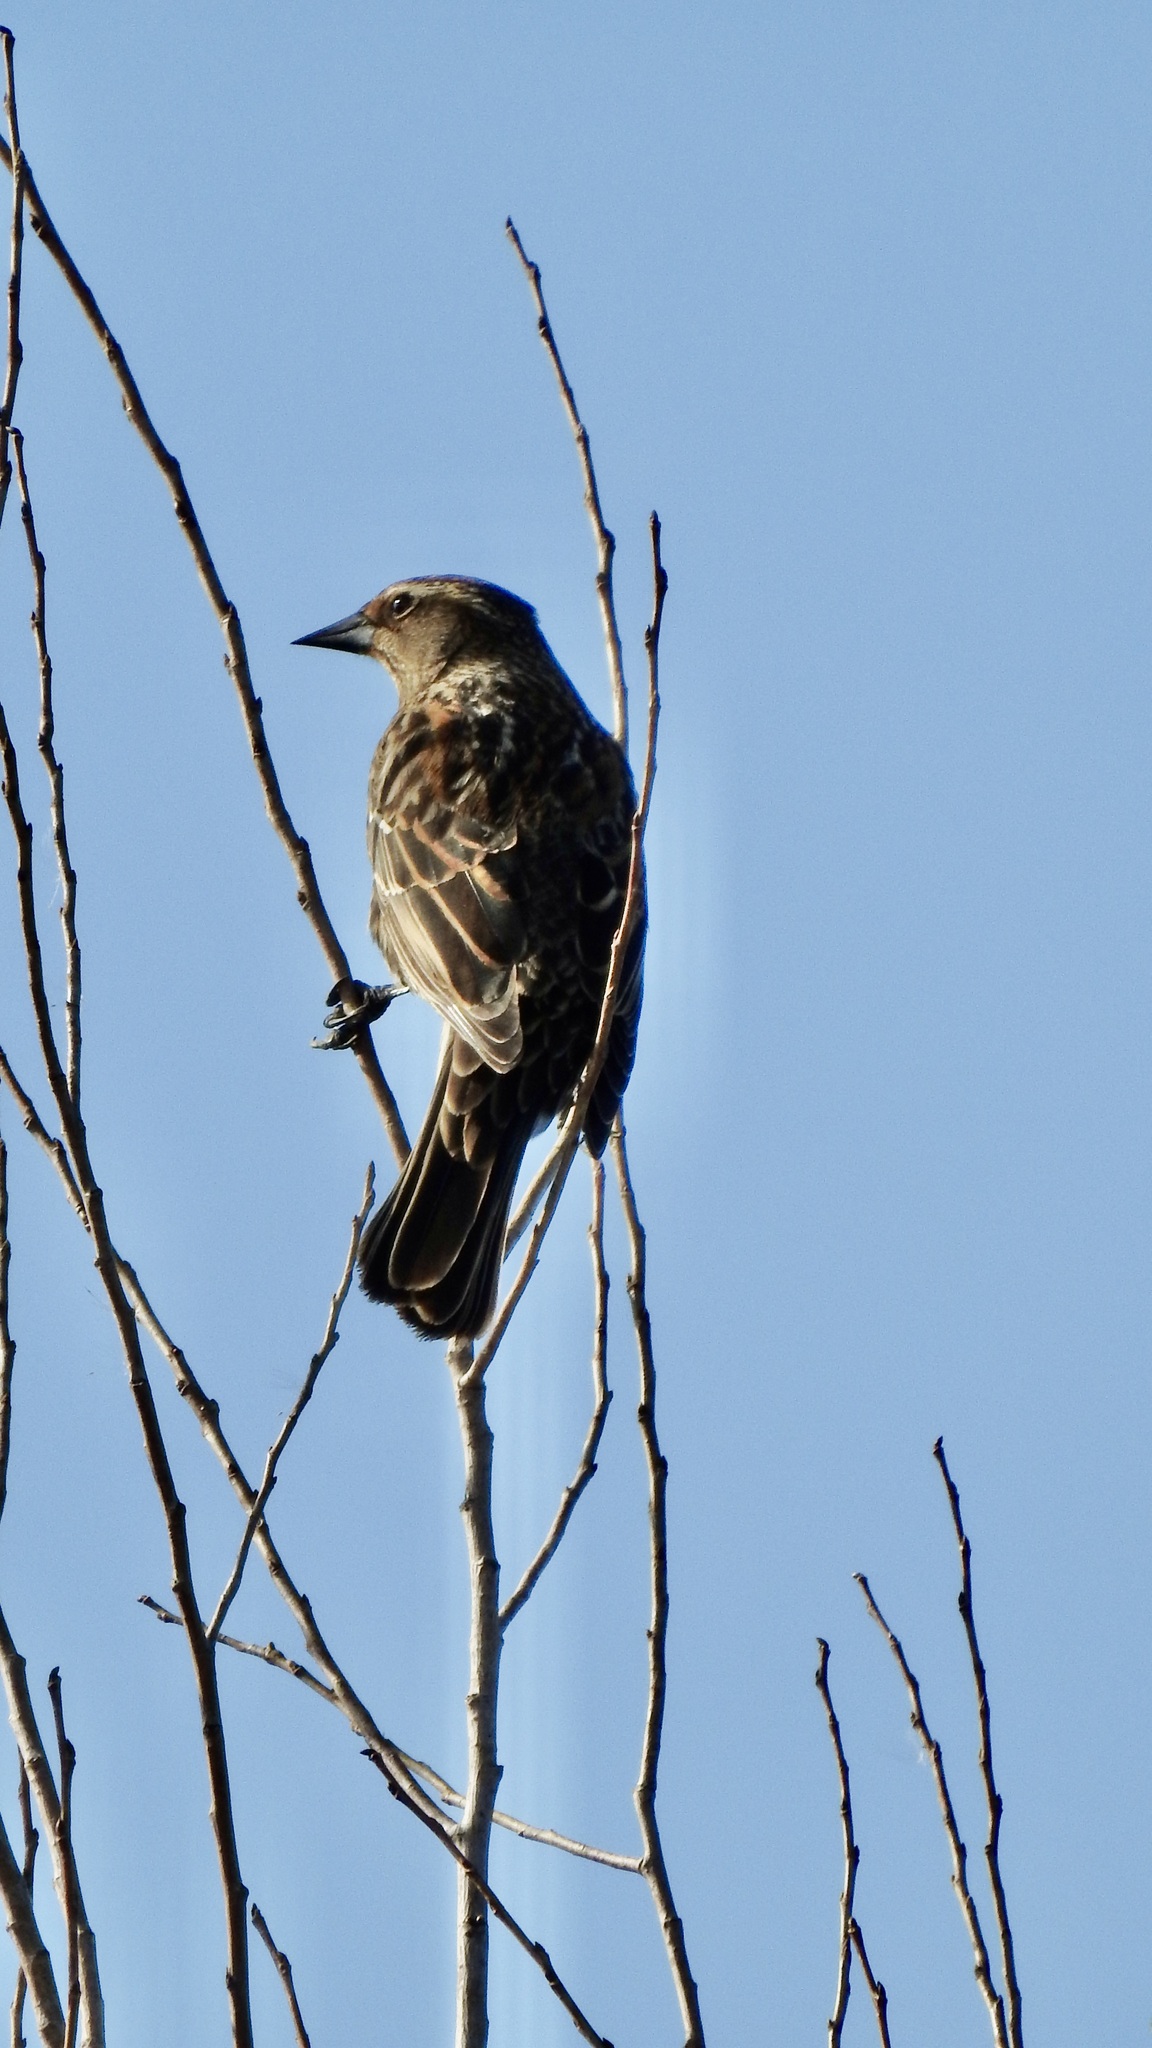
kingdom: Animalia
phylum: Chordata
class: Aves
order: Passeriformes
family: Icteridae
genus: Agelaius
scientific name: Agelaius phoeniceus
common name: Red-winged blackbird
